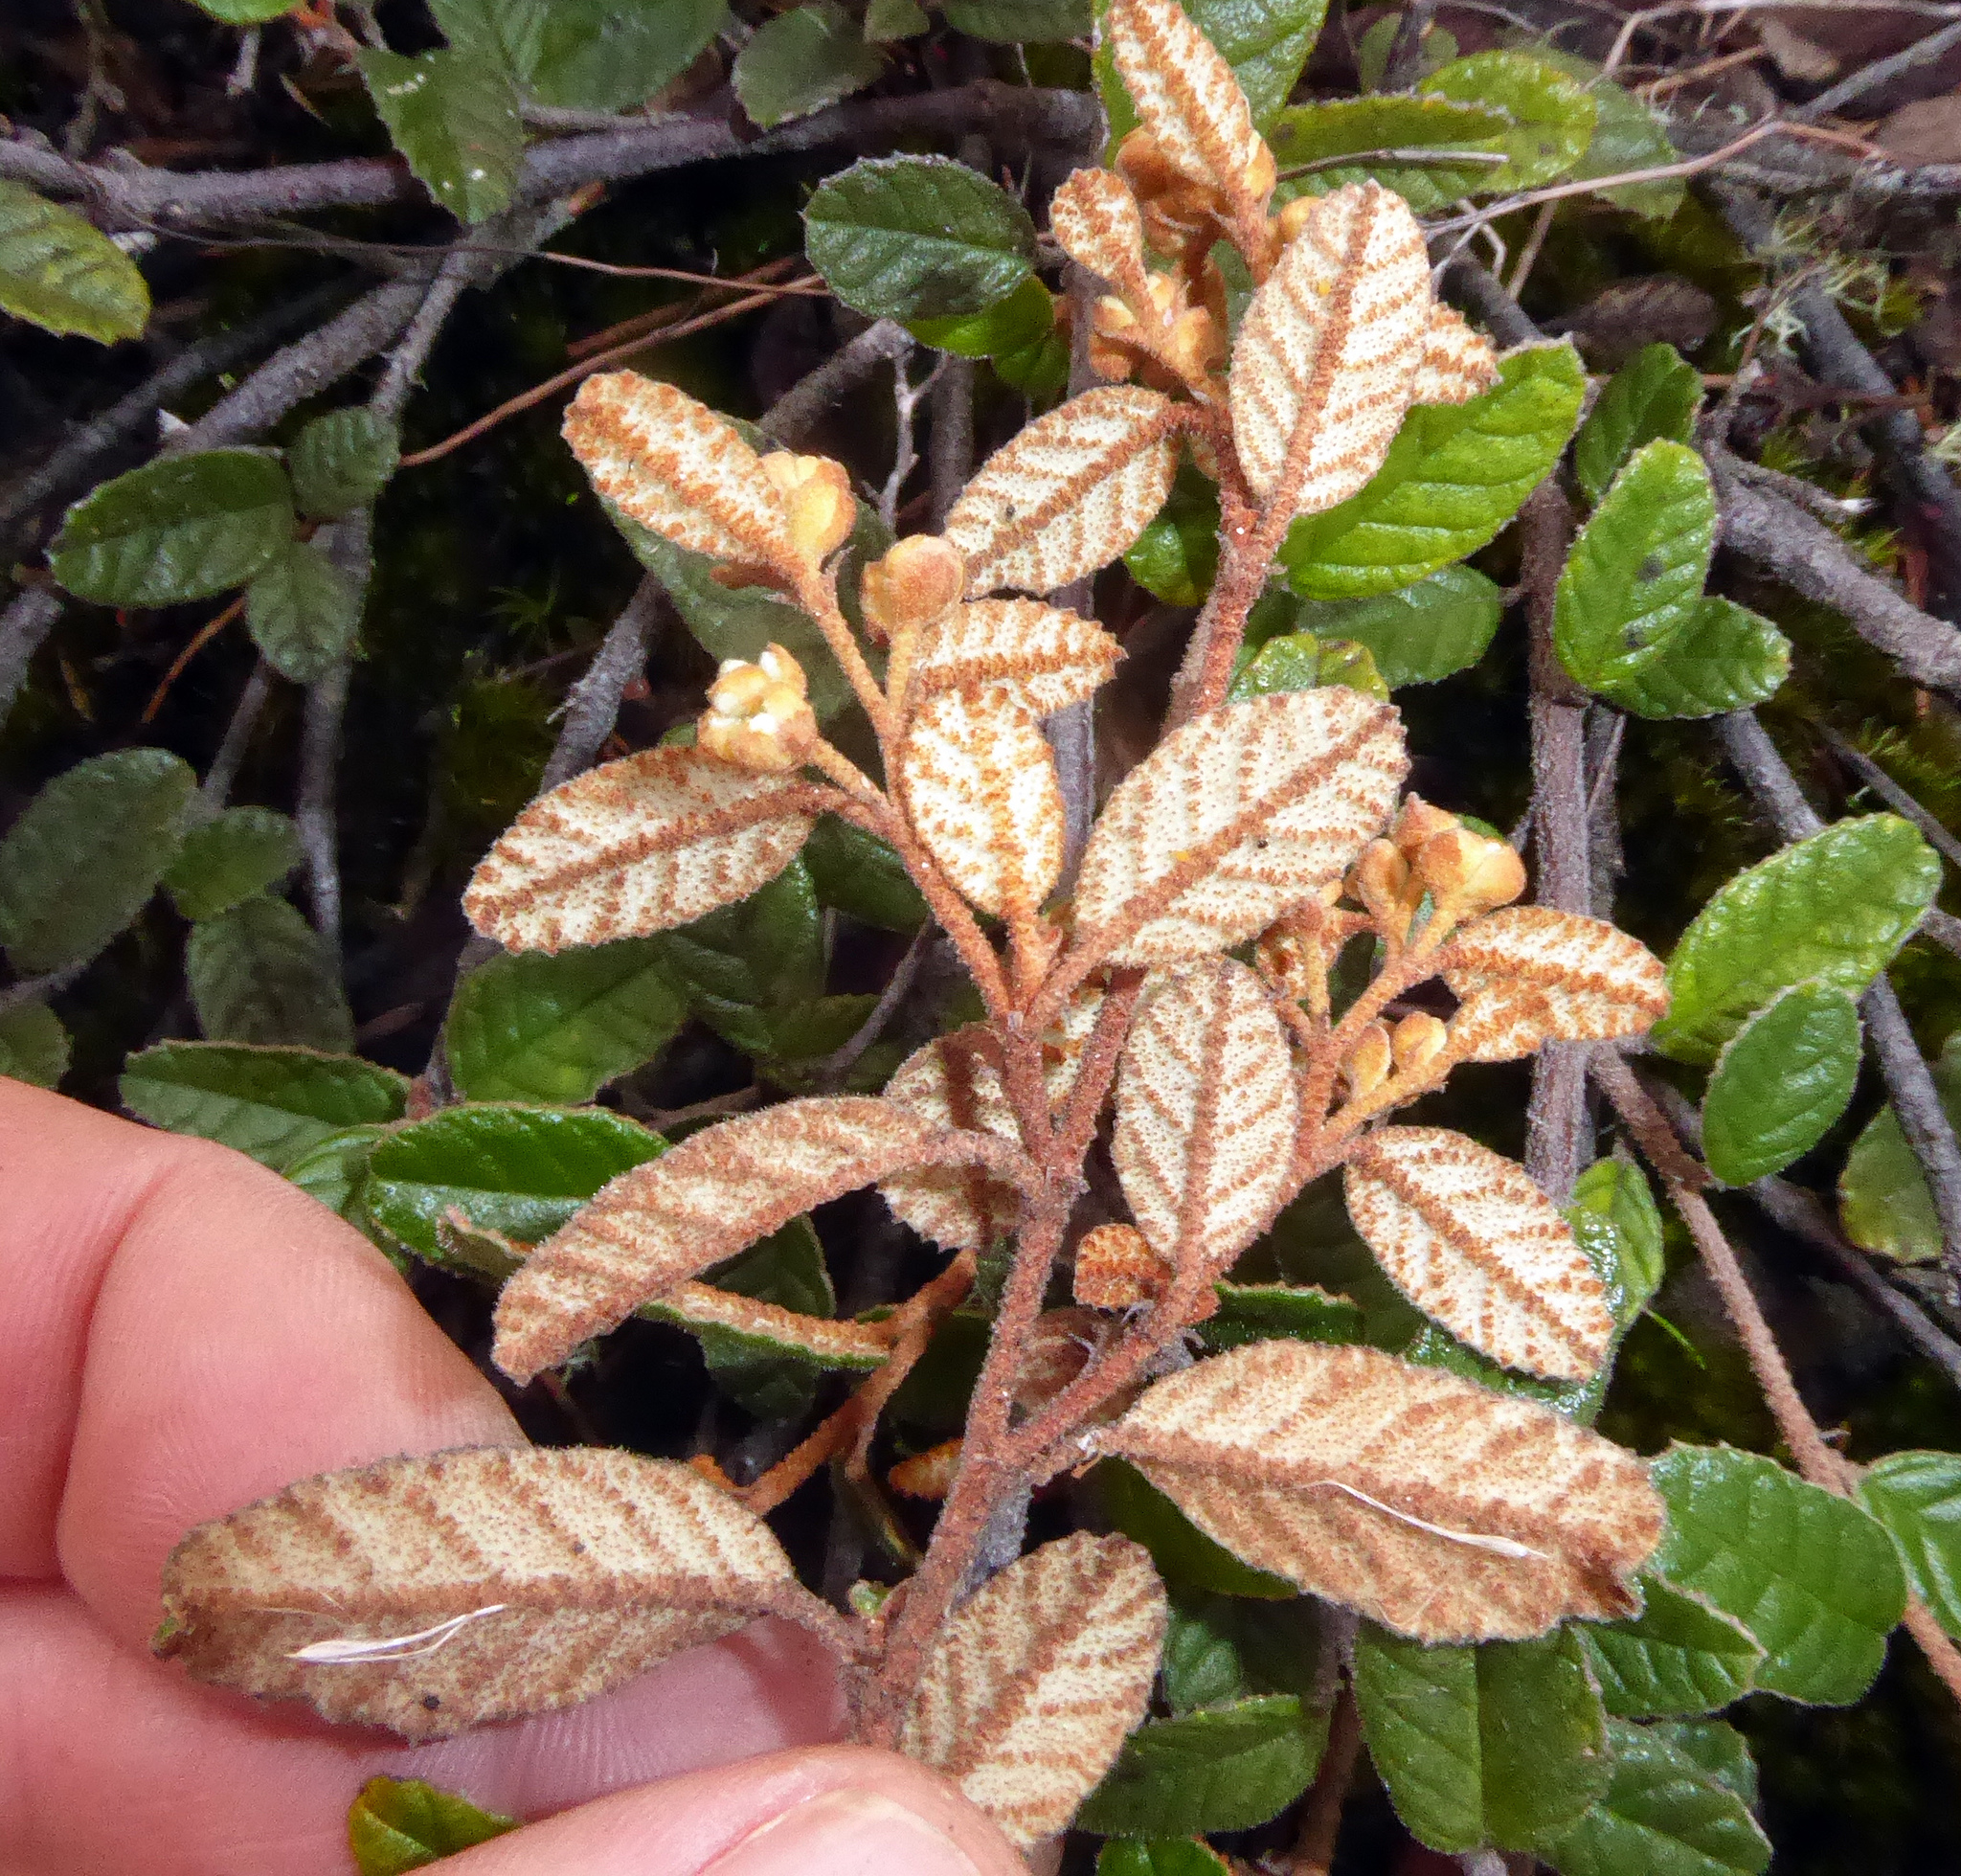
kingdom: Plantae
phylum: Tracheophyta
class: Magnoliopsida
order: Rosales
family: Rhamnaceae
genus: Pomaderris
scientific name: Pomaderris edgerleyi
